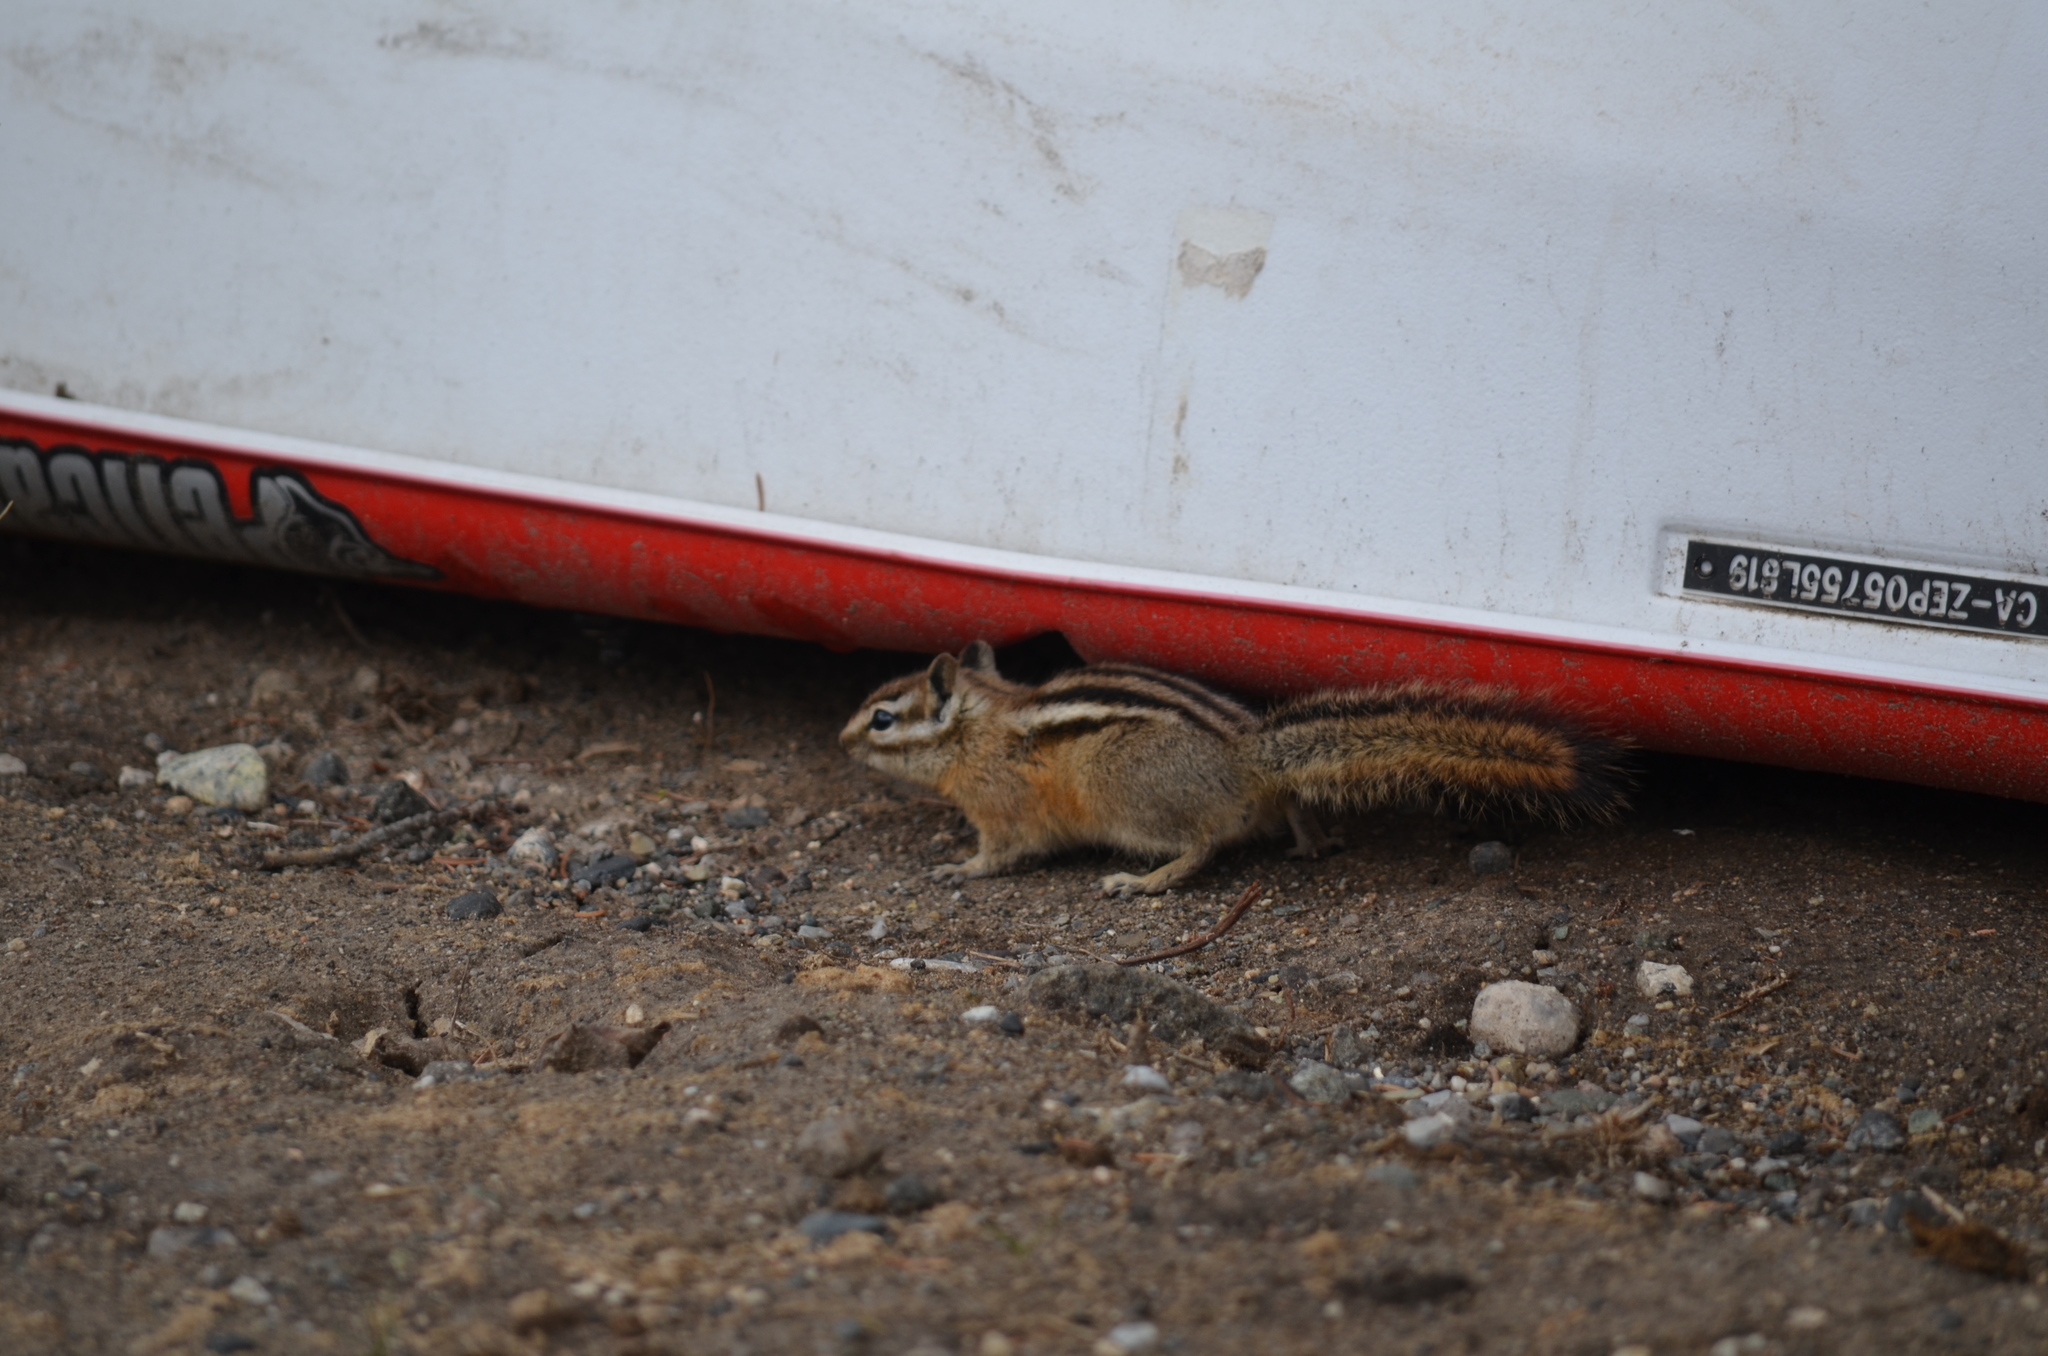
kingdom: Animalia
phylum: Chordata
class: Mammalia
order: Rodentia
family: Sciuridae
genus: Tamias
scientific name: Tamias amoenus
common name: Yellow-pine chipmunk
